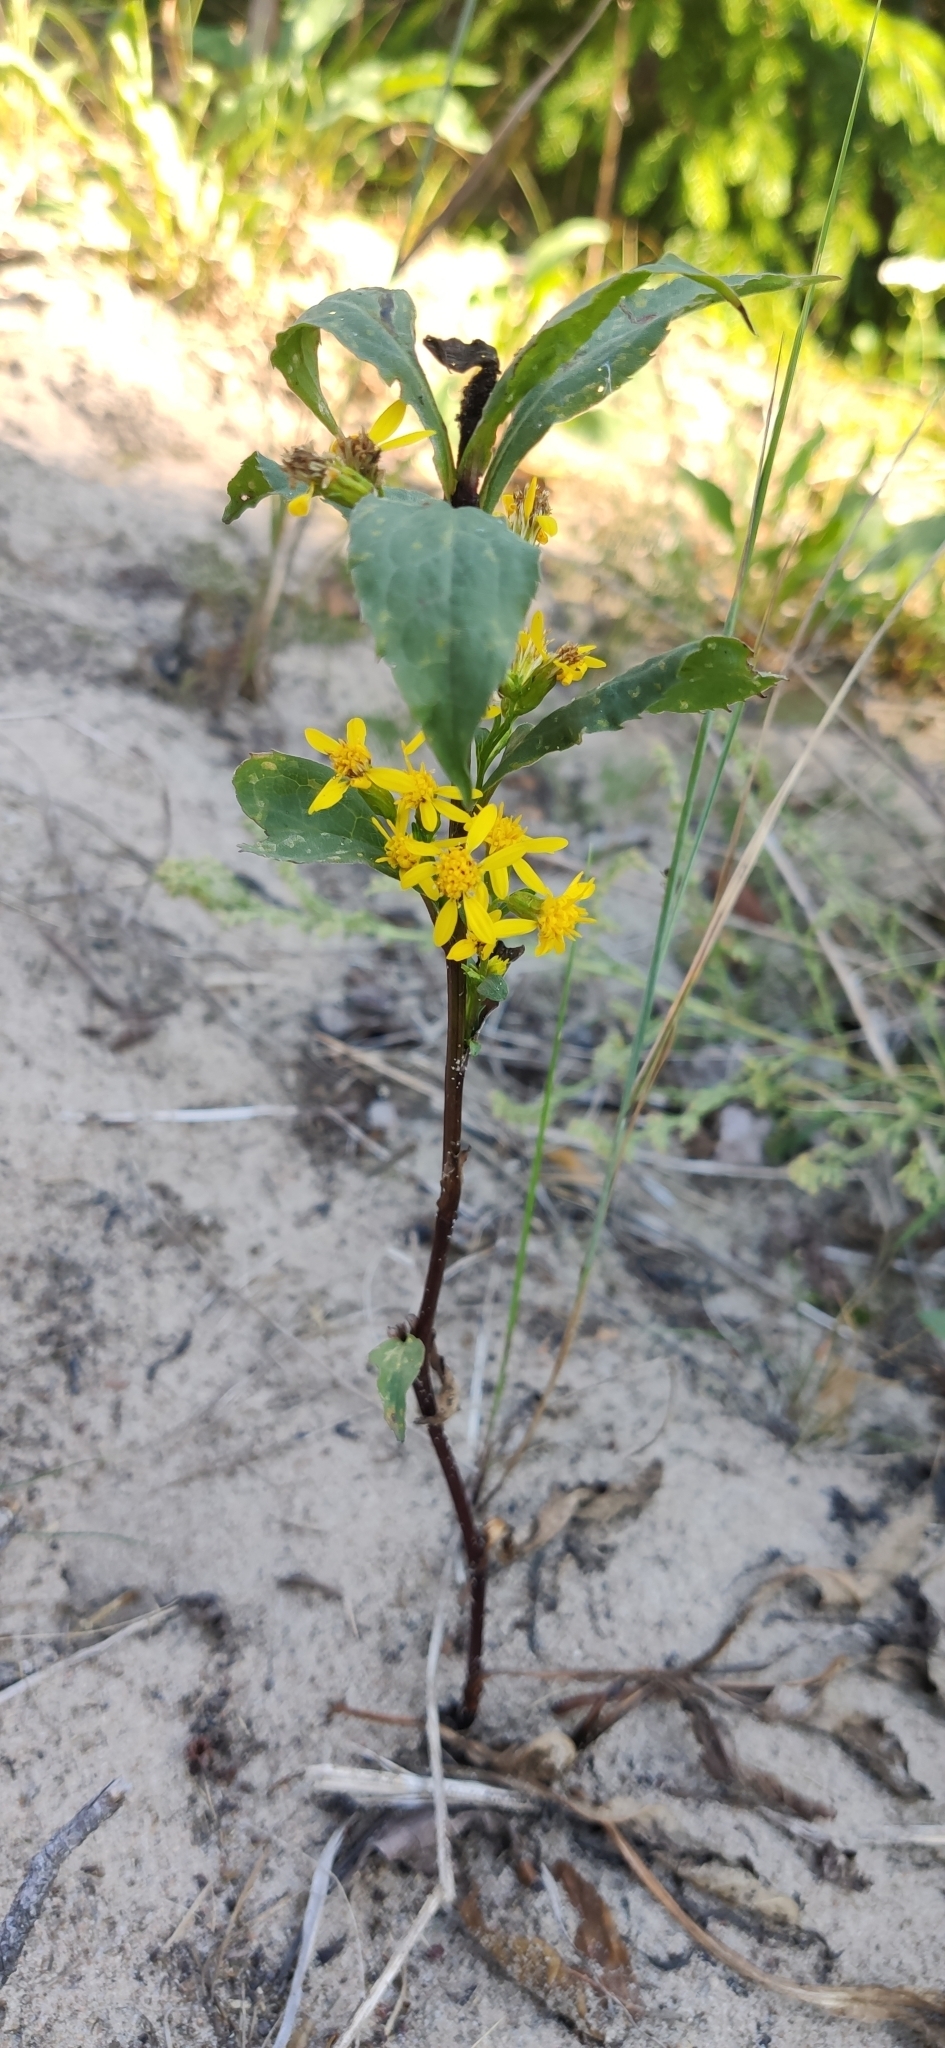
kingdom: Plantae
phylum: Tracheophyta
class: Magnoliopsida
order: Asterales
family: Asteraceae
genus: Solidago
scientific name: Solidago virgaurea
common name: Goldenrod
